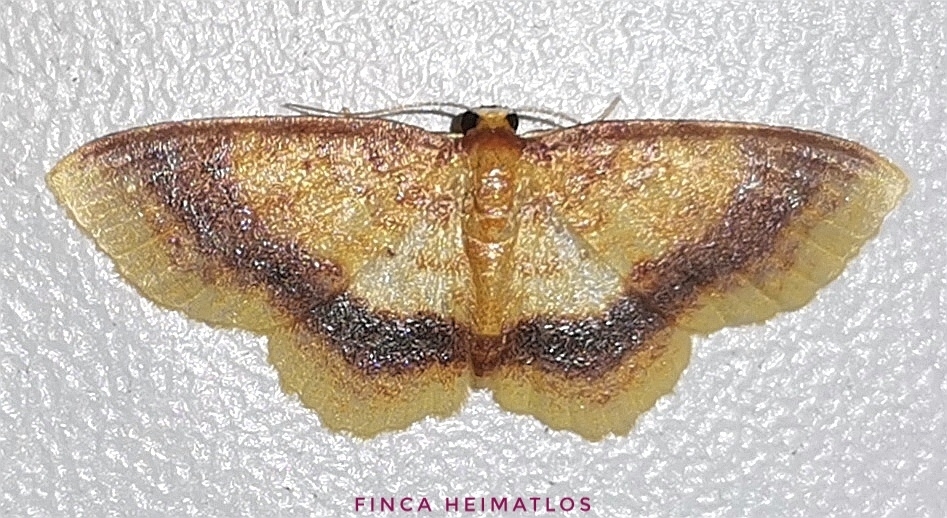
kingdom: Animalia
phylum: Arthropoda
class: Insecta
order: Lepidoptera
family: Geometridae
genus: Eois
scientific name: Eois fasciata
